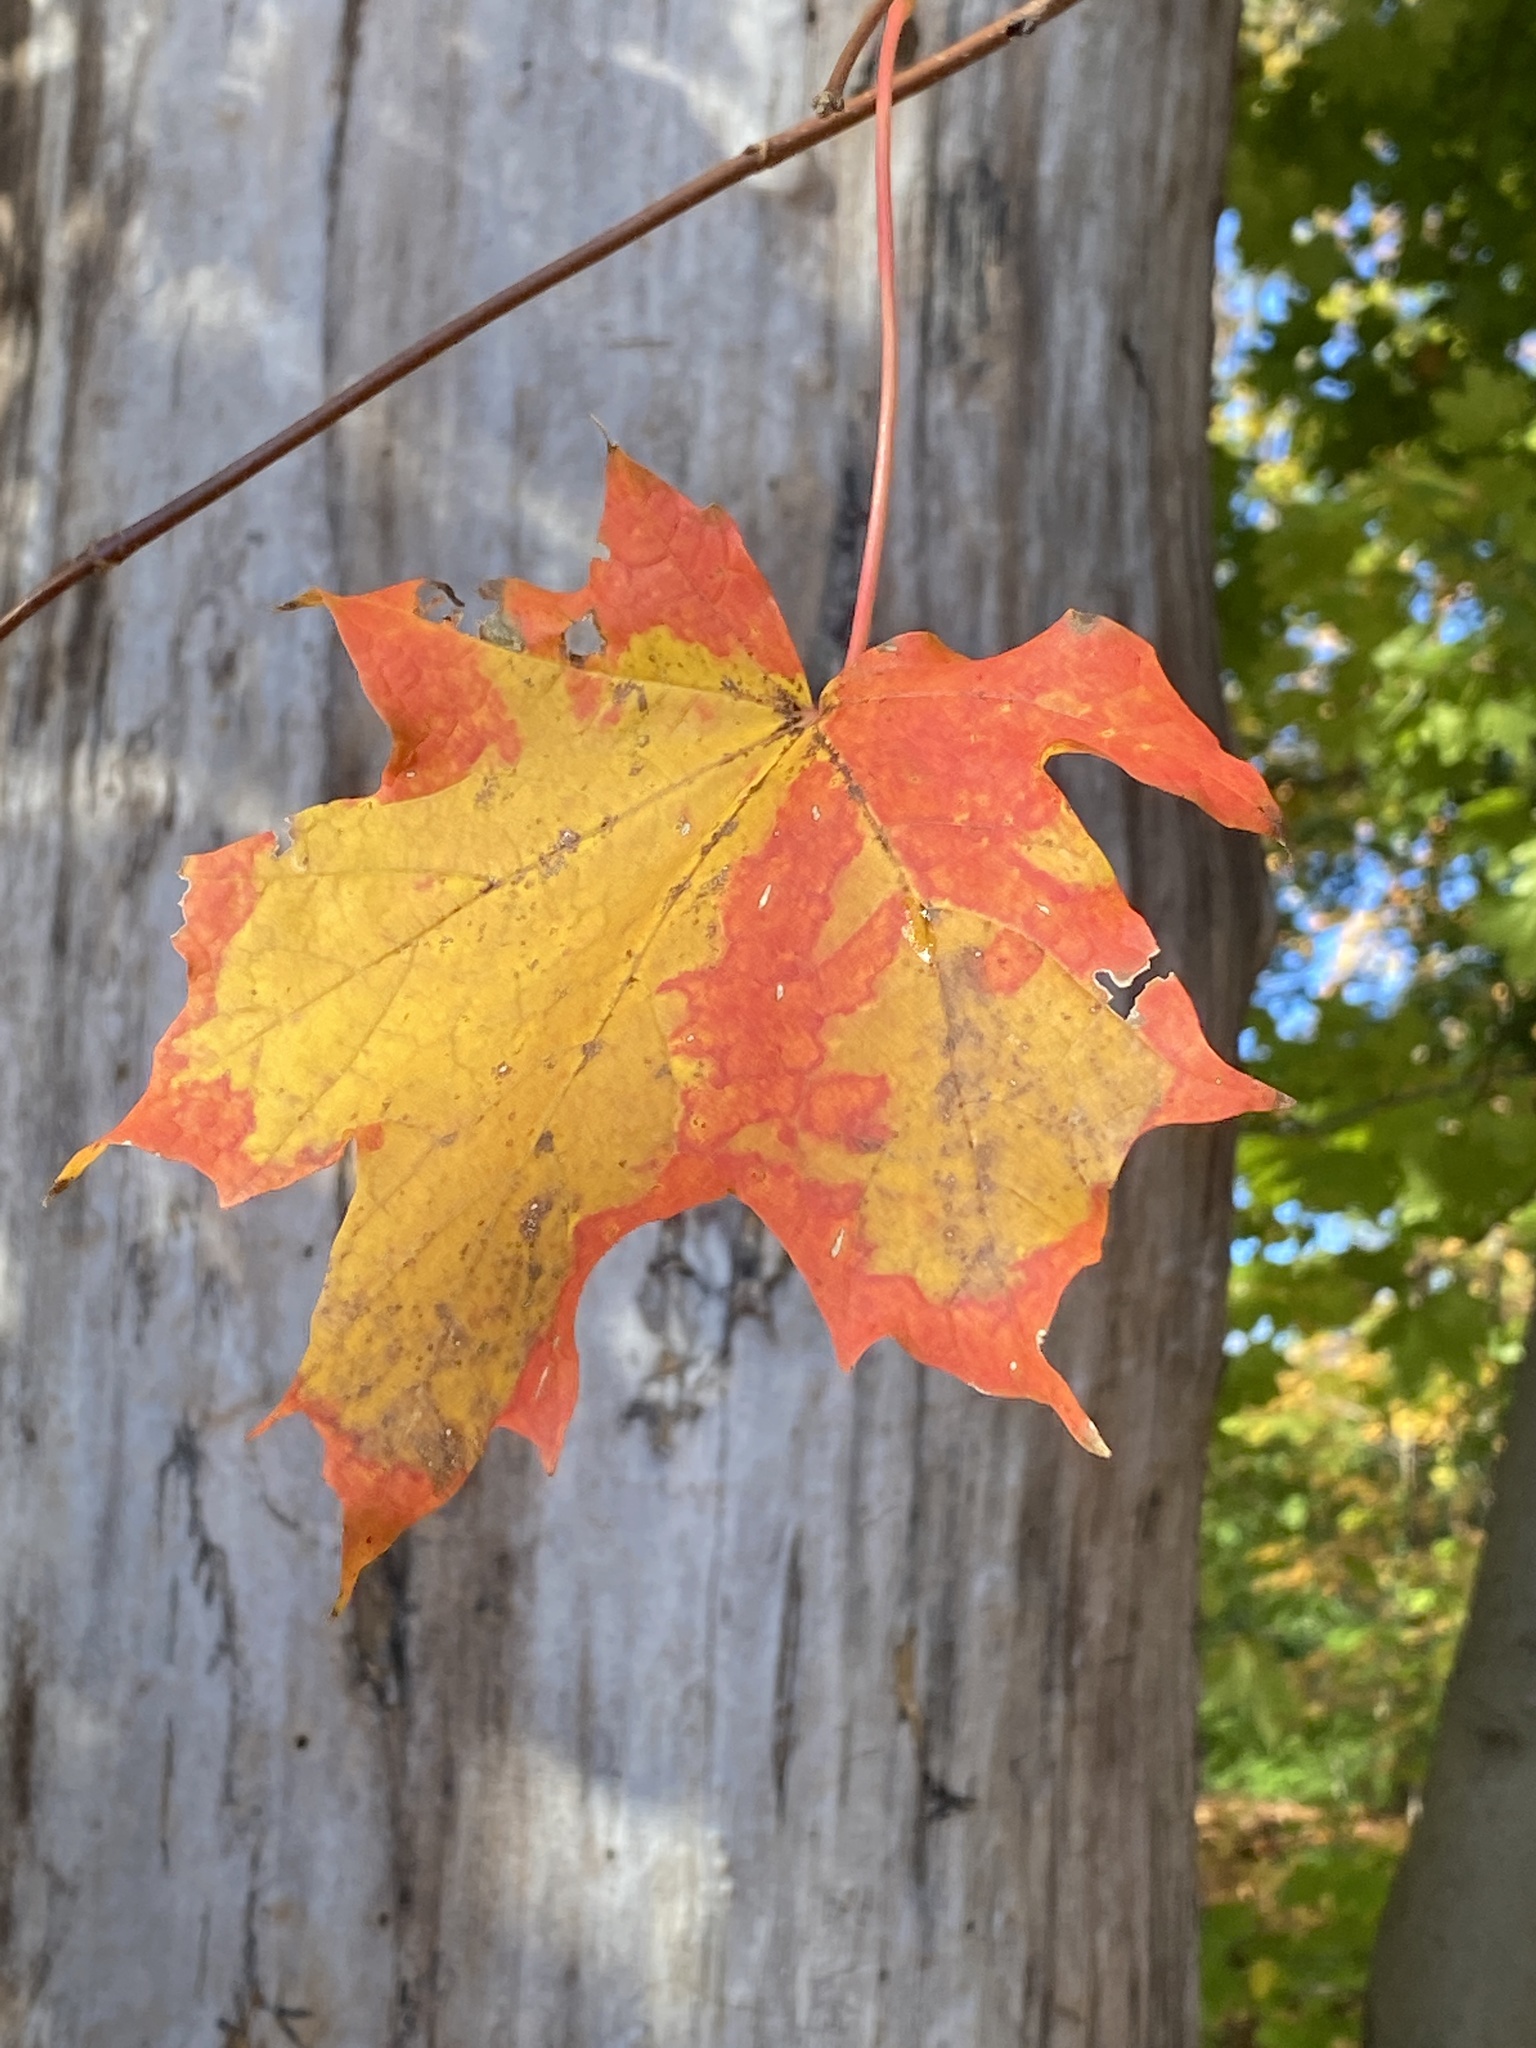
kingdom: Plantae
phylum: Tracheophyta
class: Magnoliopsida
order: Sapindales
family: Sapindaceae
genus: Acer
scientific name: Acer saccharum
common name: Sugar maple
